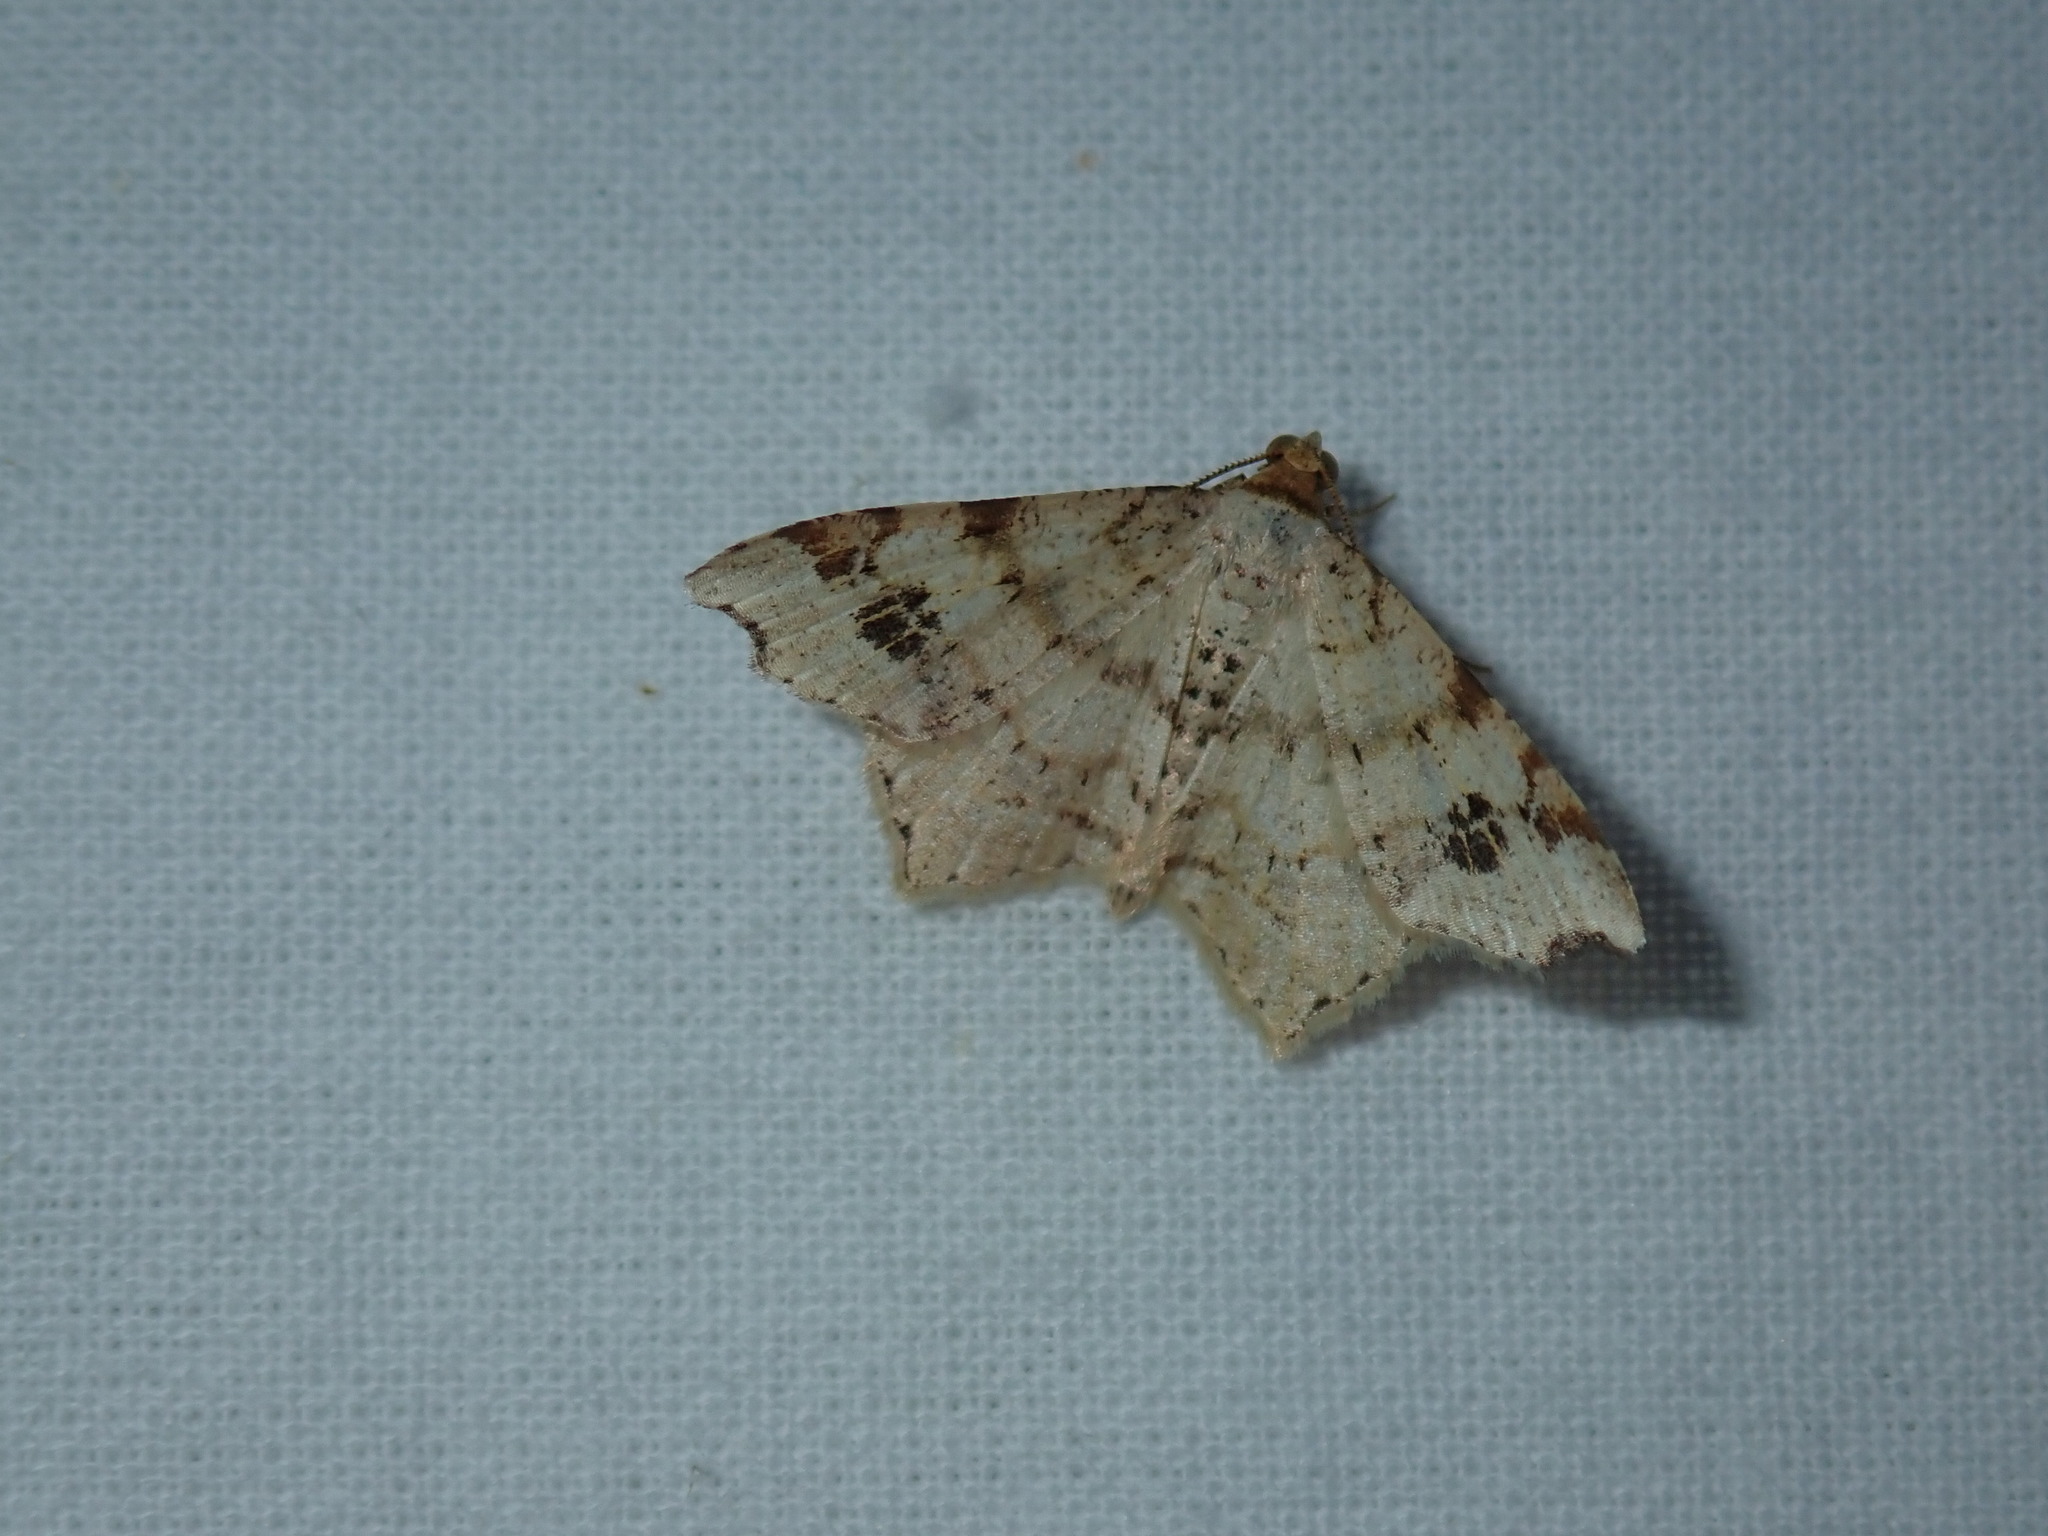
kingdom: Animalia
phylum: Arthropoda
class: Insecta
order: Lepidoptera
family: Geometridae
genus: Macaria
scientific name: Macaria aemulataria
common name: Common angle
